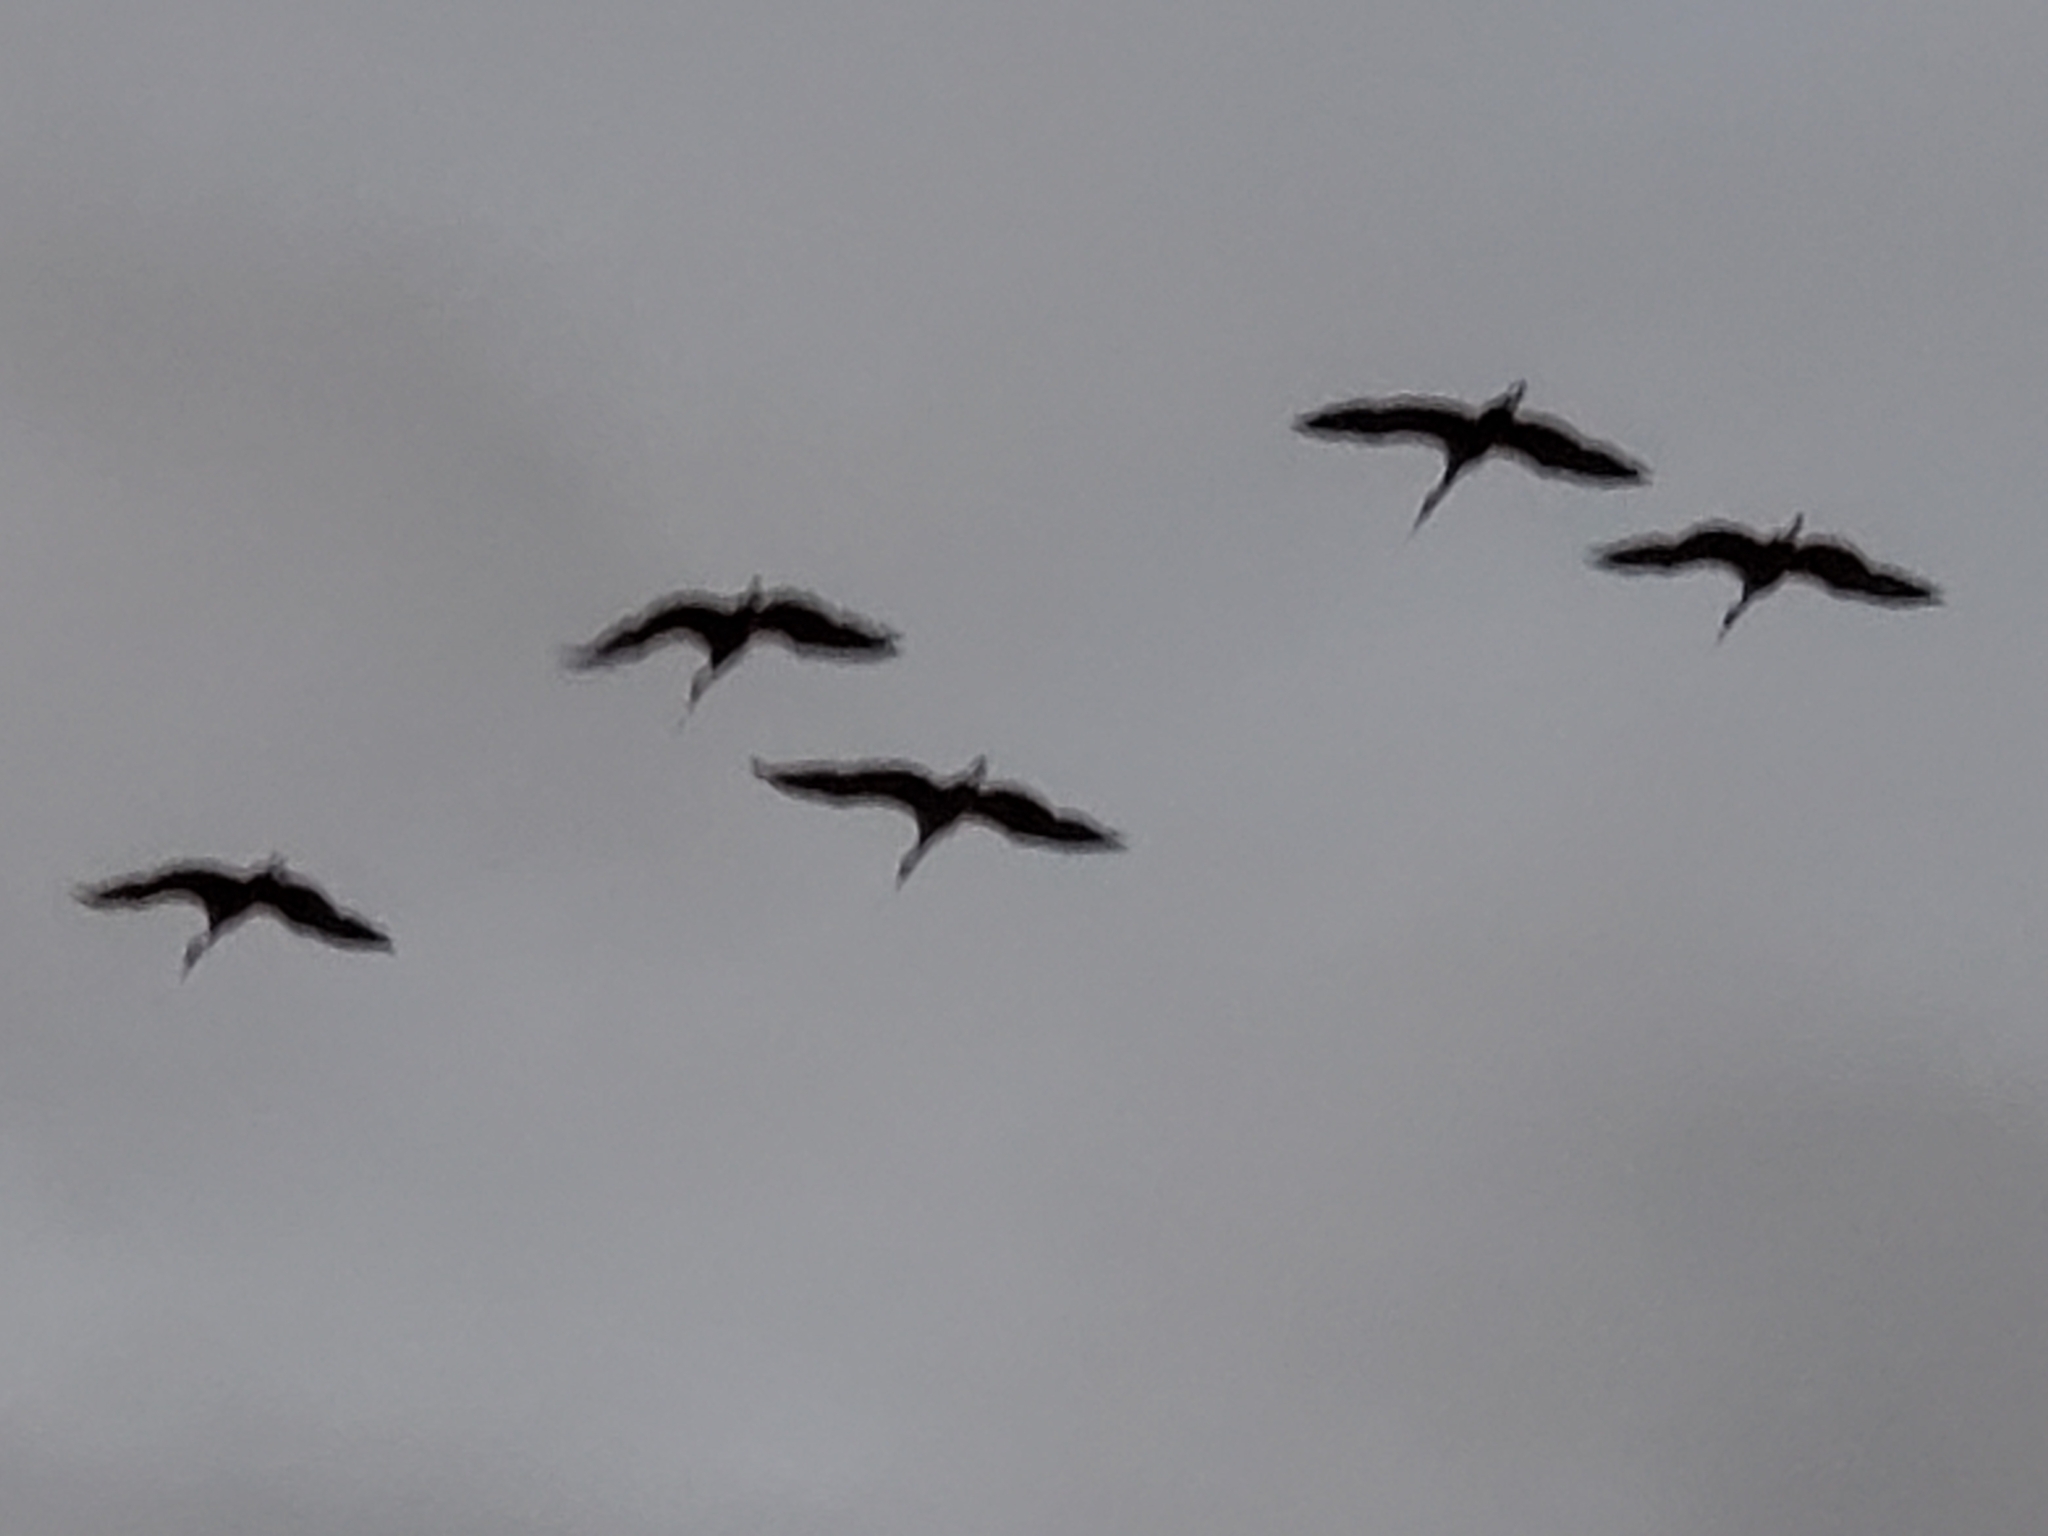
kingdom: Animalia
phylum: Chordata
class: Aves
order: Gruiformes
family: Gruidae
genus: Grus
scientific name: Grus canadensis
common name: Sandhill crane
